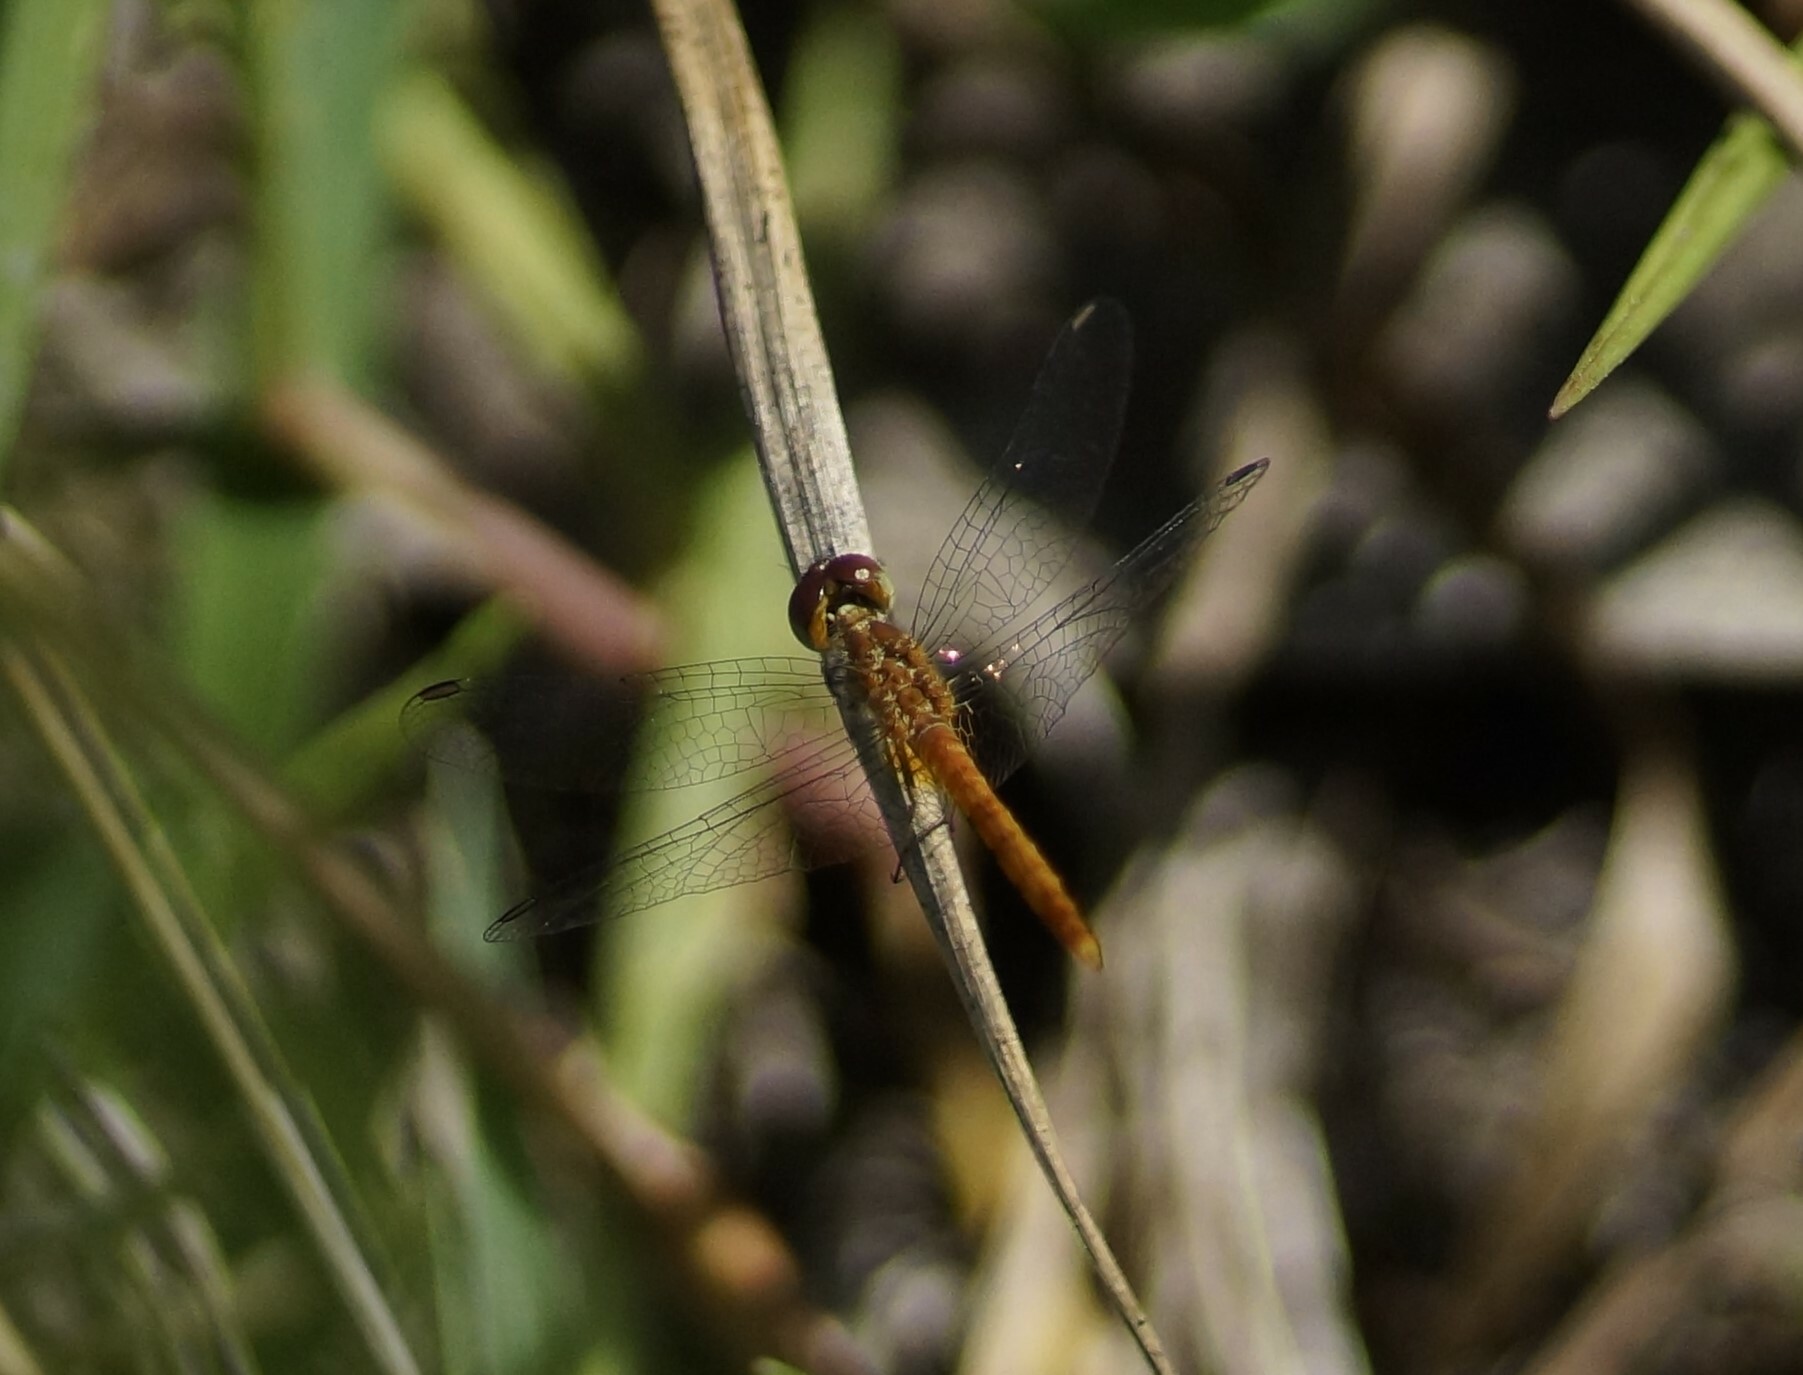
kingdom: Animalia
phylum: Arthropoda
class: Insecta
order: Odonata
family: Libellulidae
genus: Nannodiplax
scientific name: Nannodiplax rubra
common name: Pygmy percher
